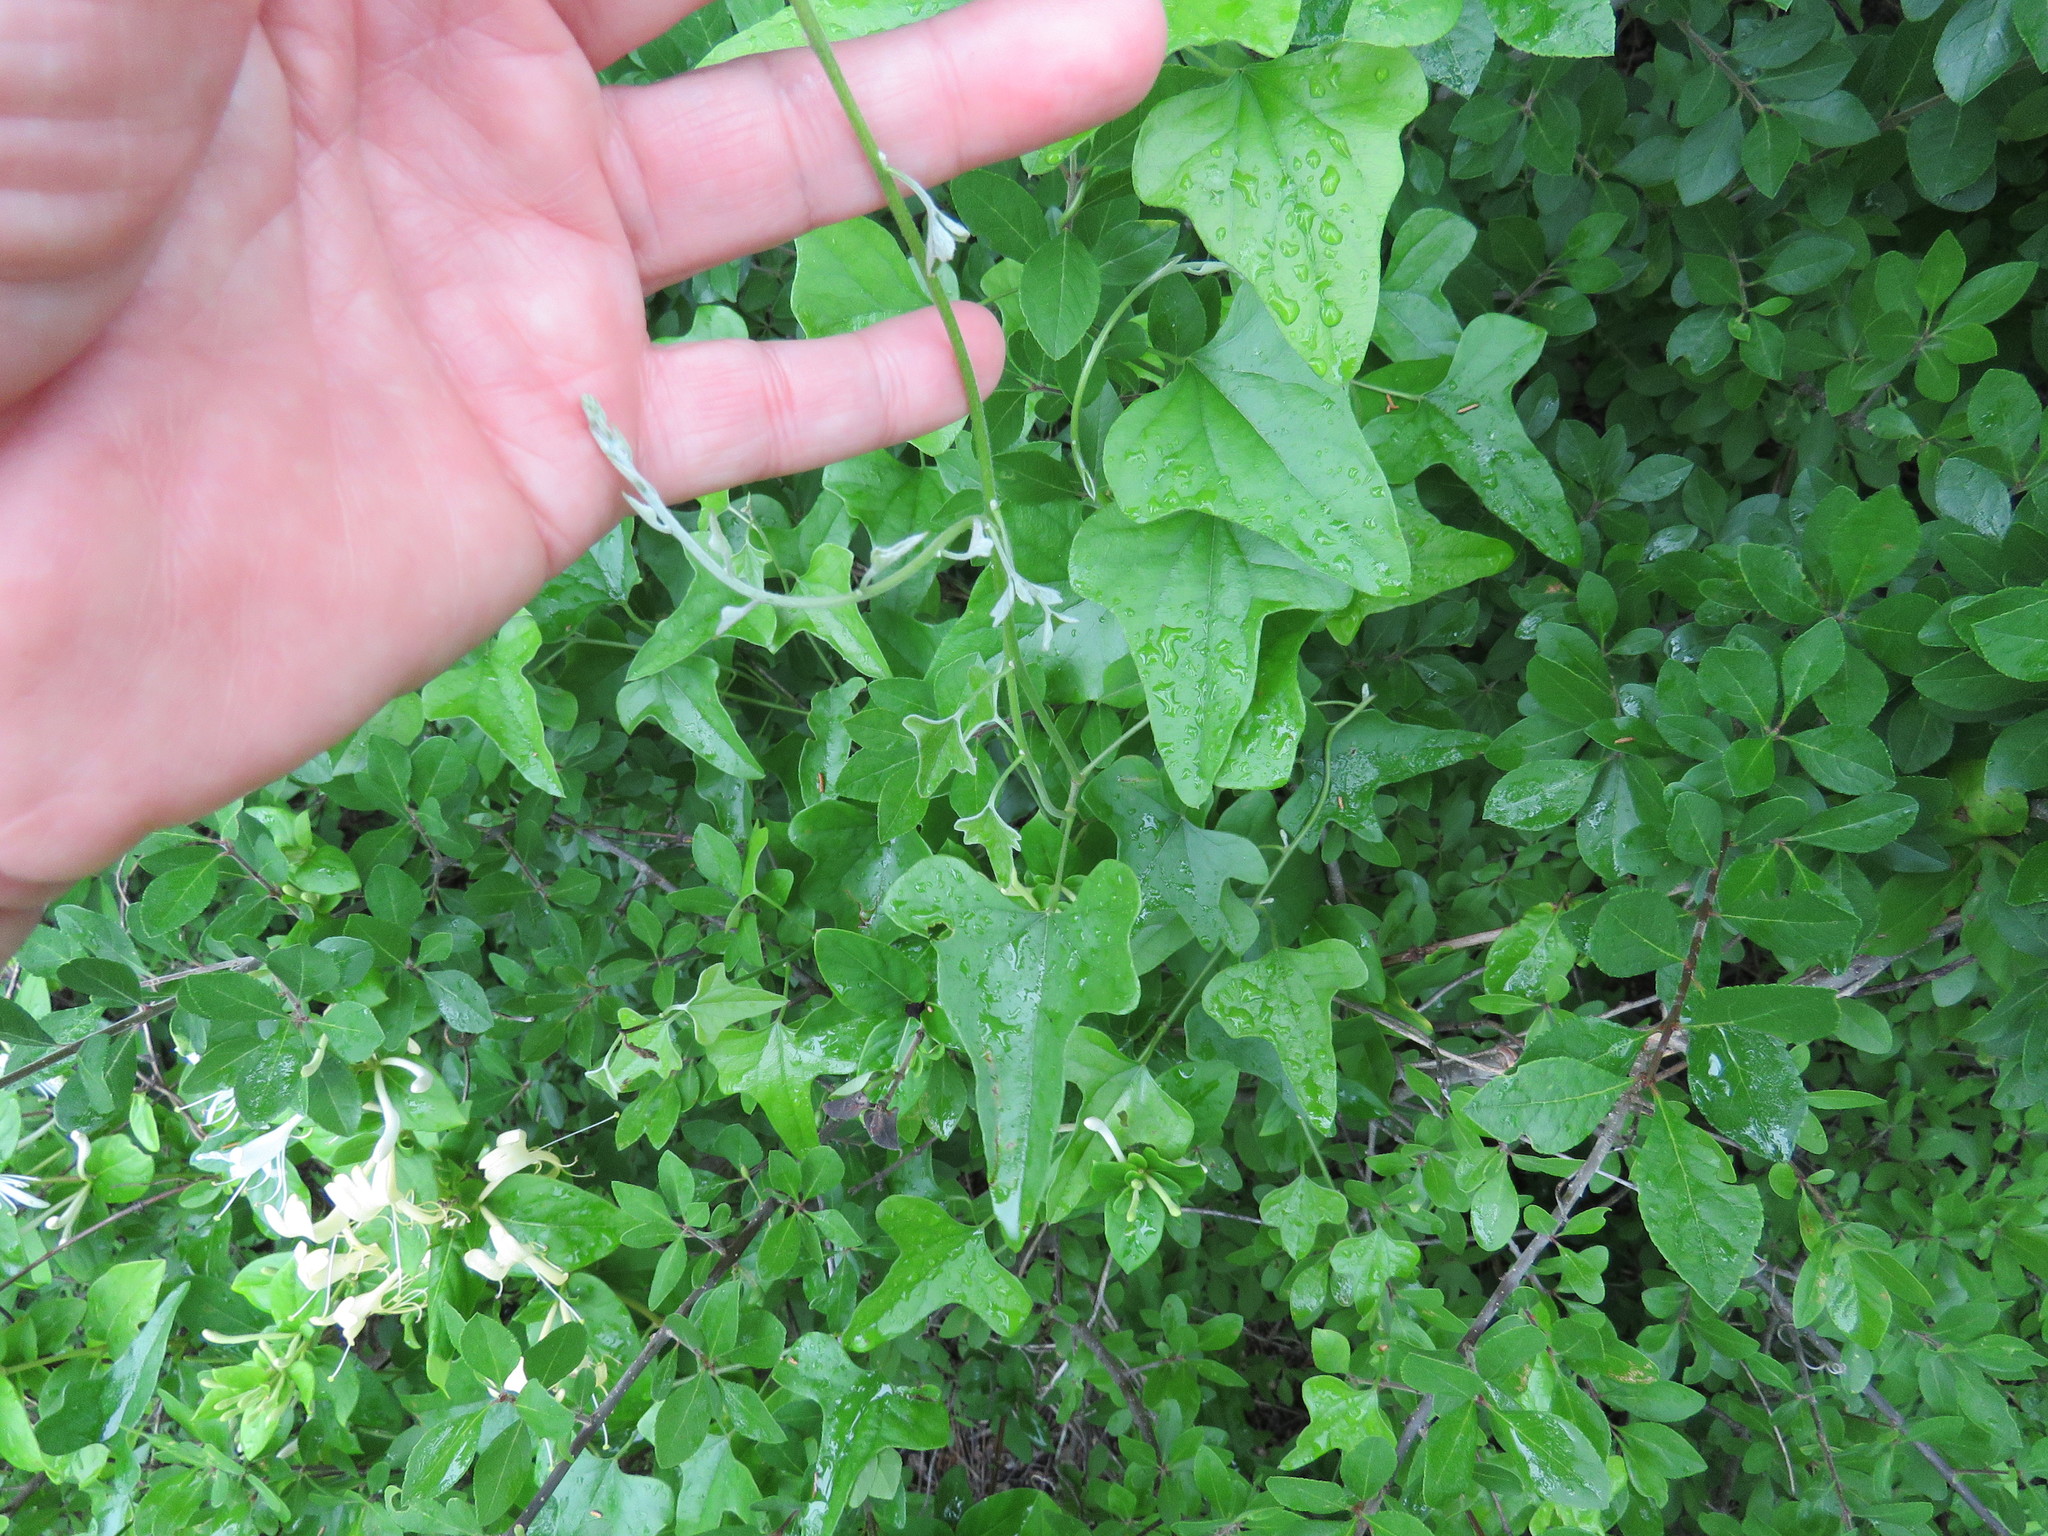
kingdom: Plantae
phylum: Tracheophyta
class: Magnoliopsida
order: Ranunculales
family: Menispermaceae
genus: Cocculus
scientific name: Cocculus carolinus
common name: Carolina moonseed
